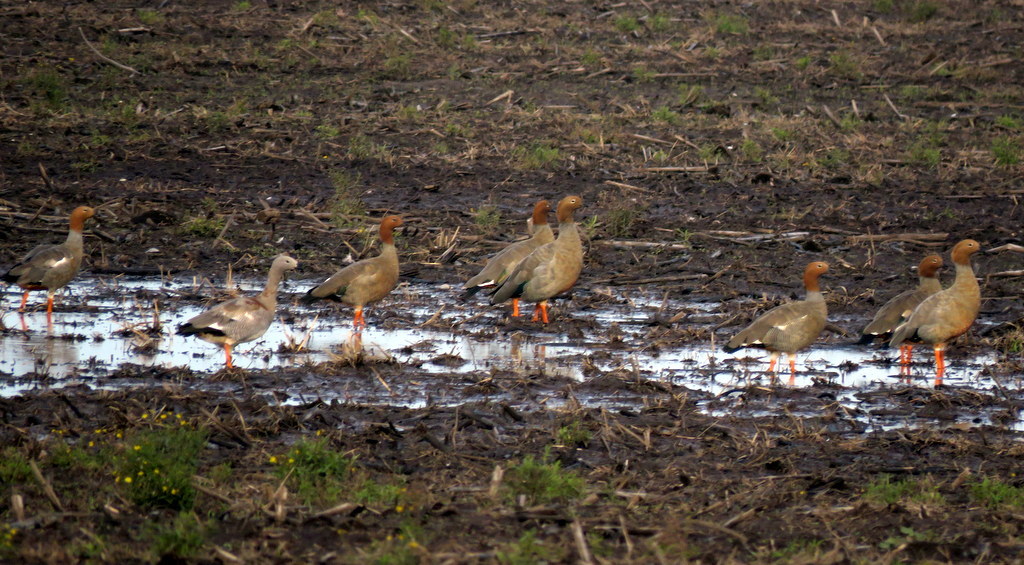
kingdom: Animalia
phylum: Chordata
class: Aves
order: Anseriformes
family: Anatidae
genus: Chloephaga
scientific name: Chloephaga rubidiceps
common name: Ruddy-headed goose
